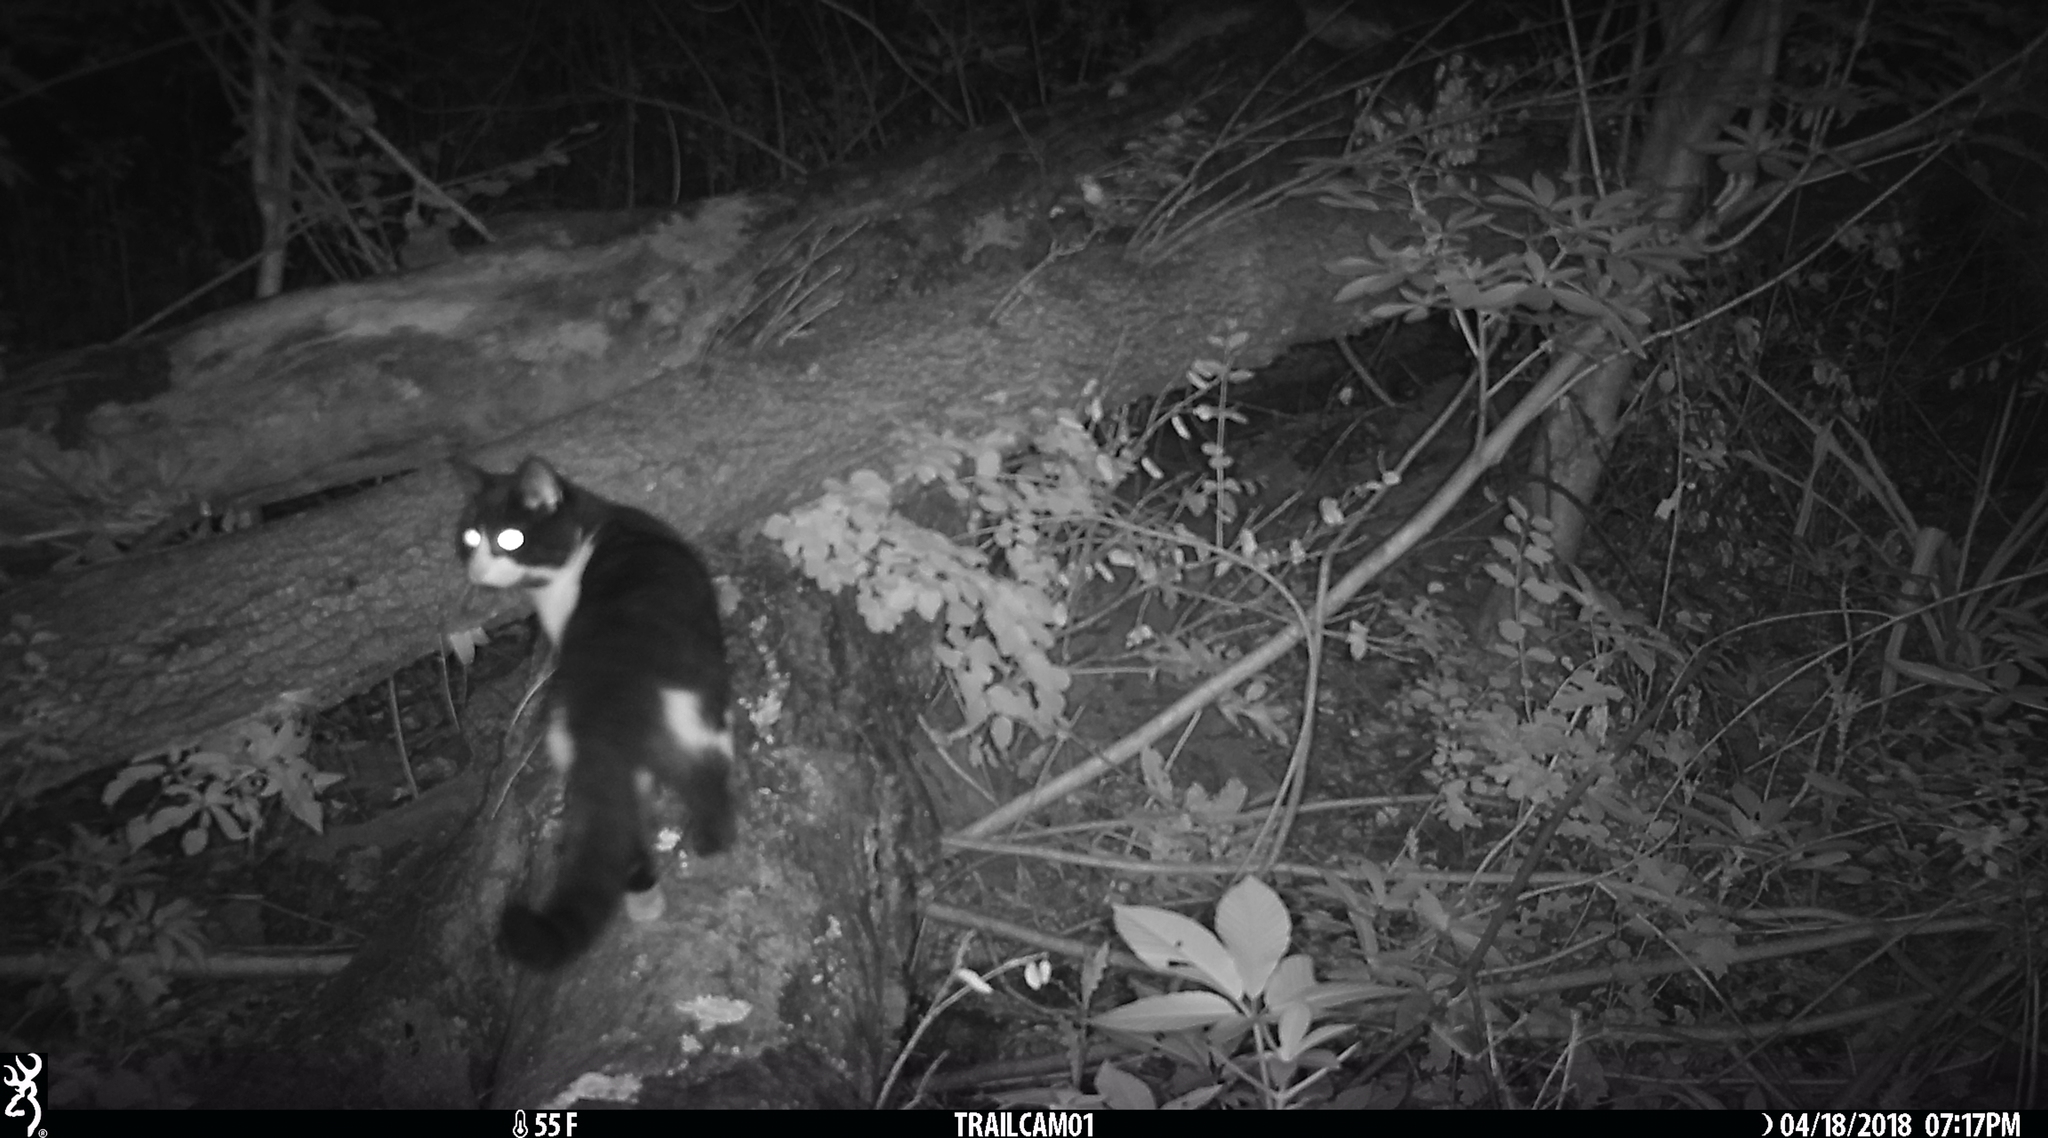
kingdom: Animalia
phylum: Chordata
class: Mammalia
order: Carnivora
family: Felidae
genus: Felis
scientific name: Felis catus
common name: Domestic cat
